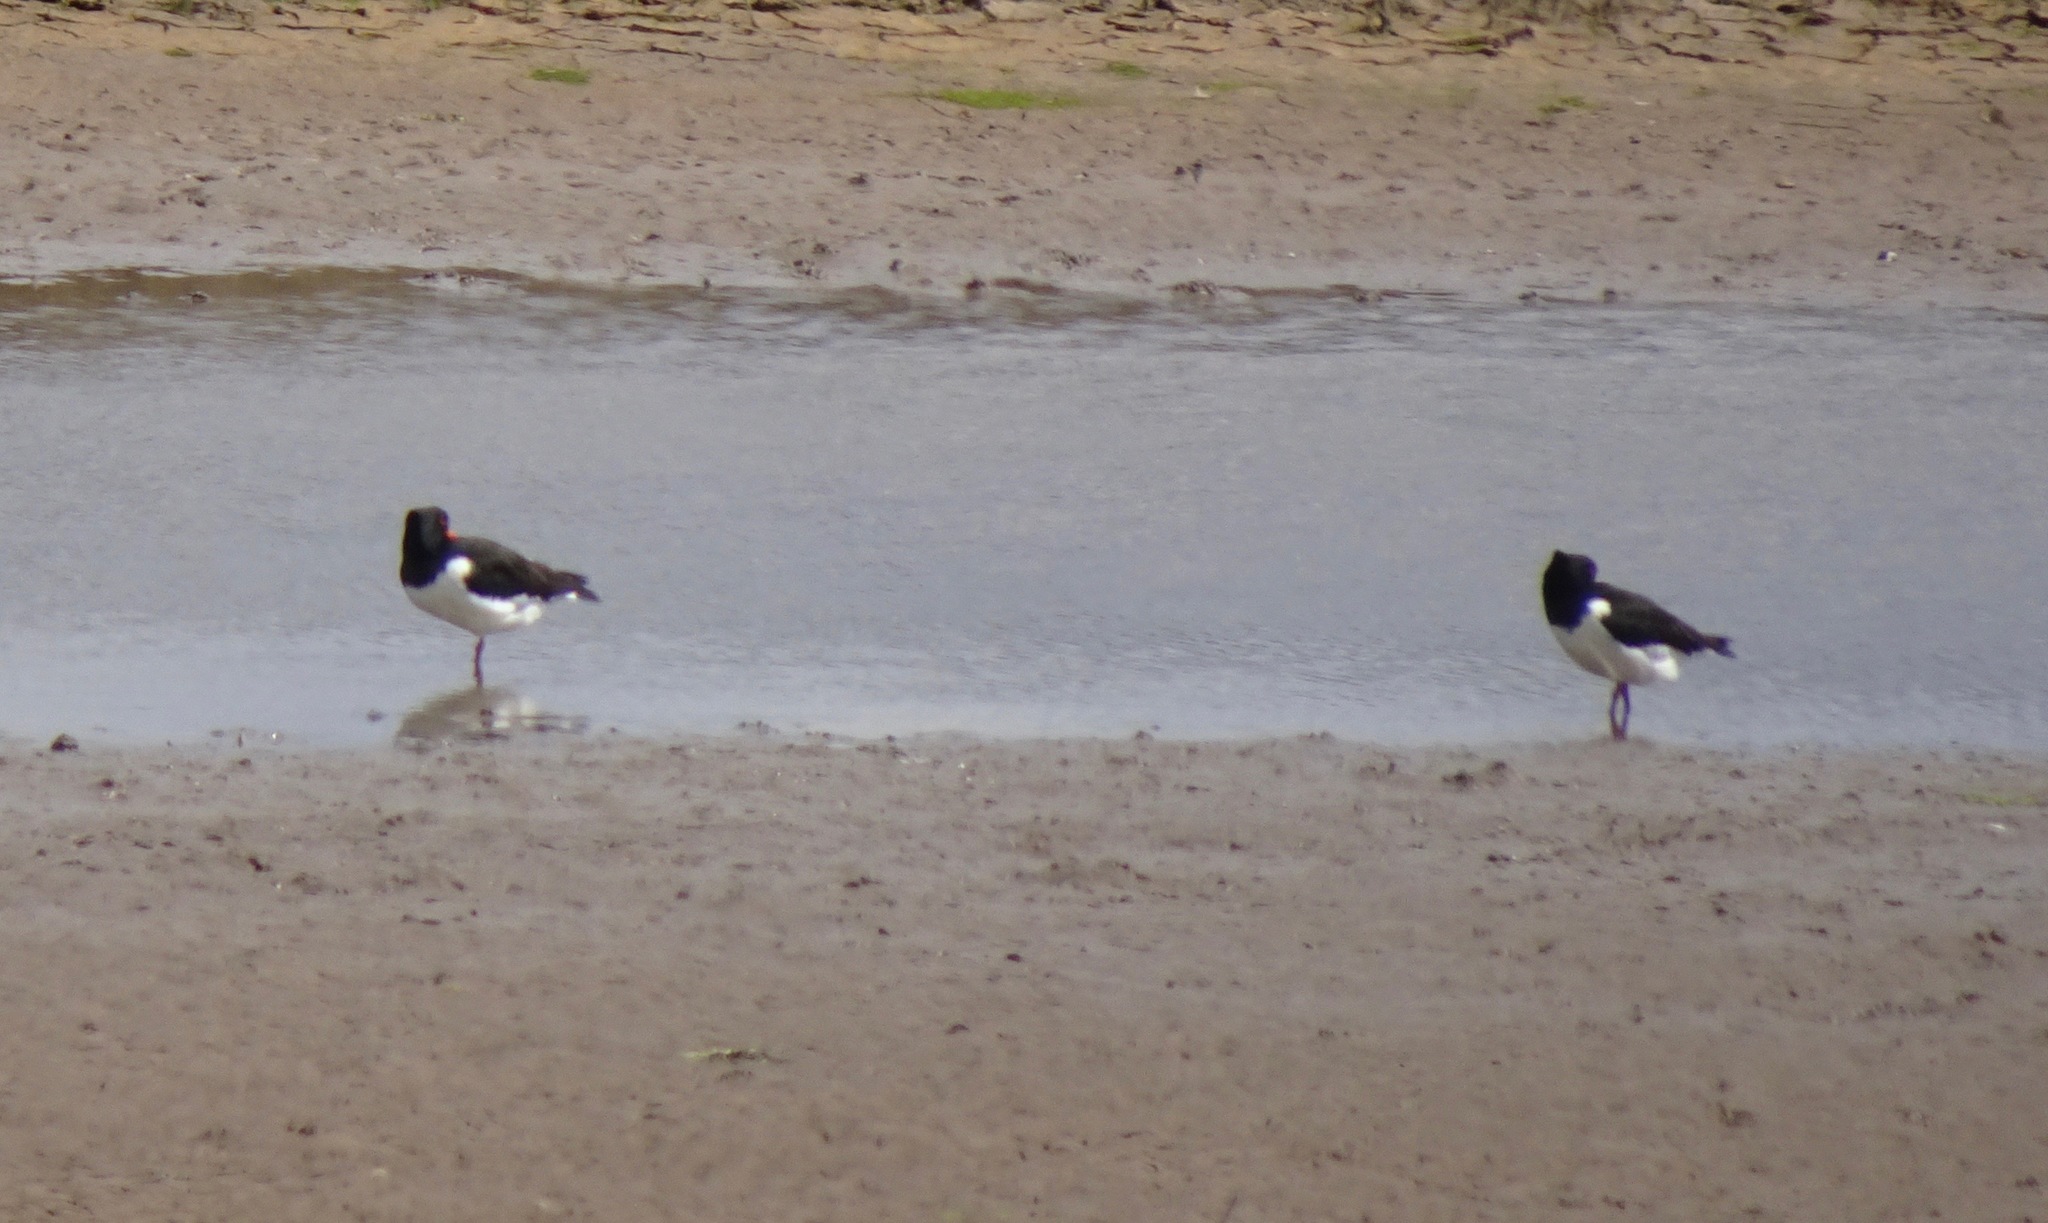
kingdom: Animalia
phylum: Chordata
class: Aves
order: Charadriiformes
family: Haematopodidae
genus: Haematopus
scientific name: Haematopus ostralegus
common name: Eurasian oystercatcher
